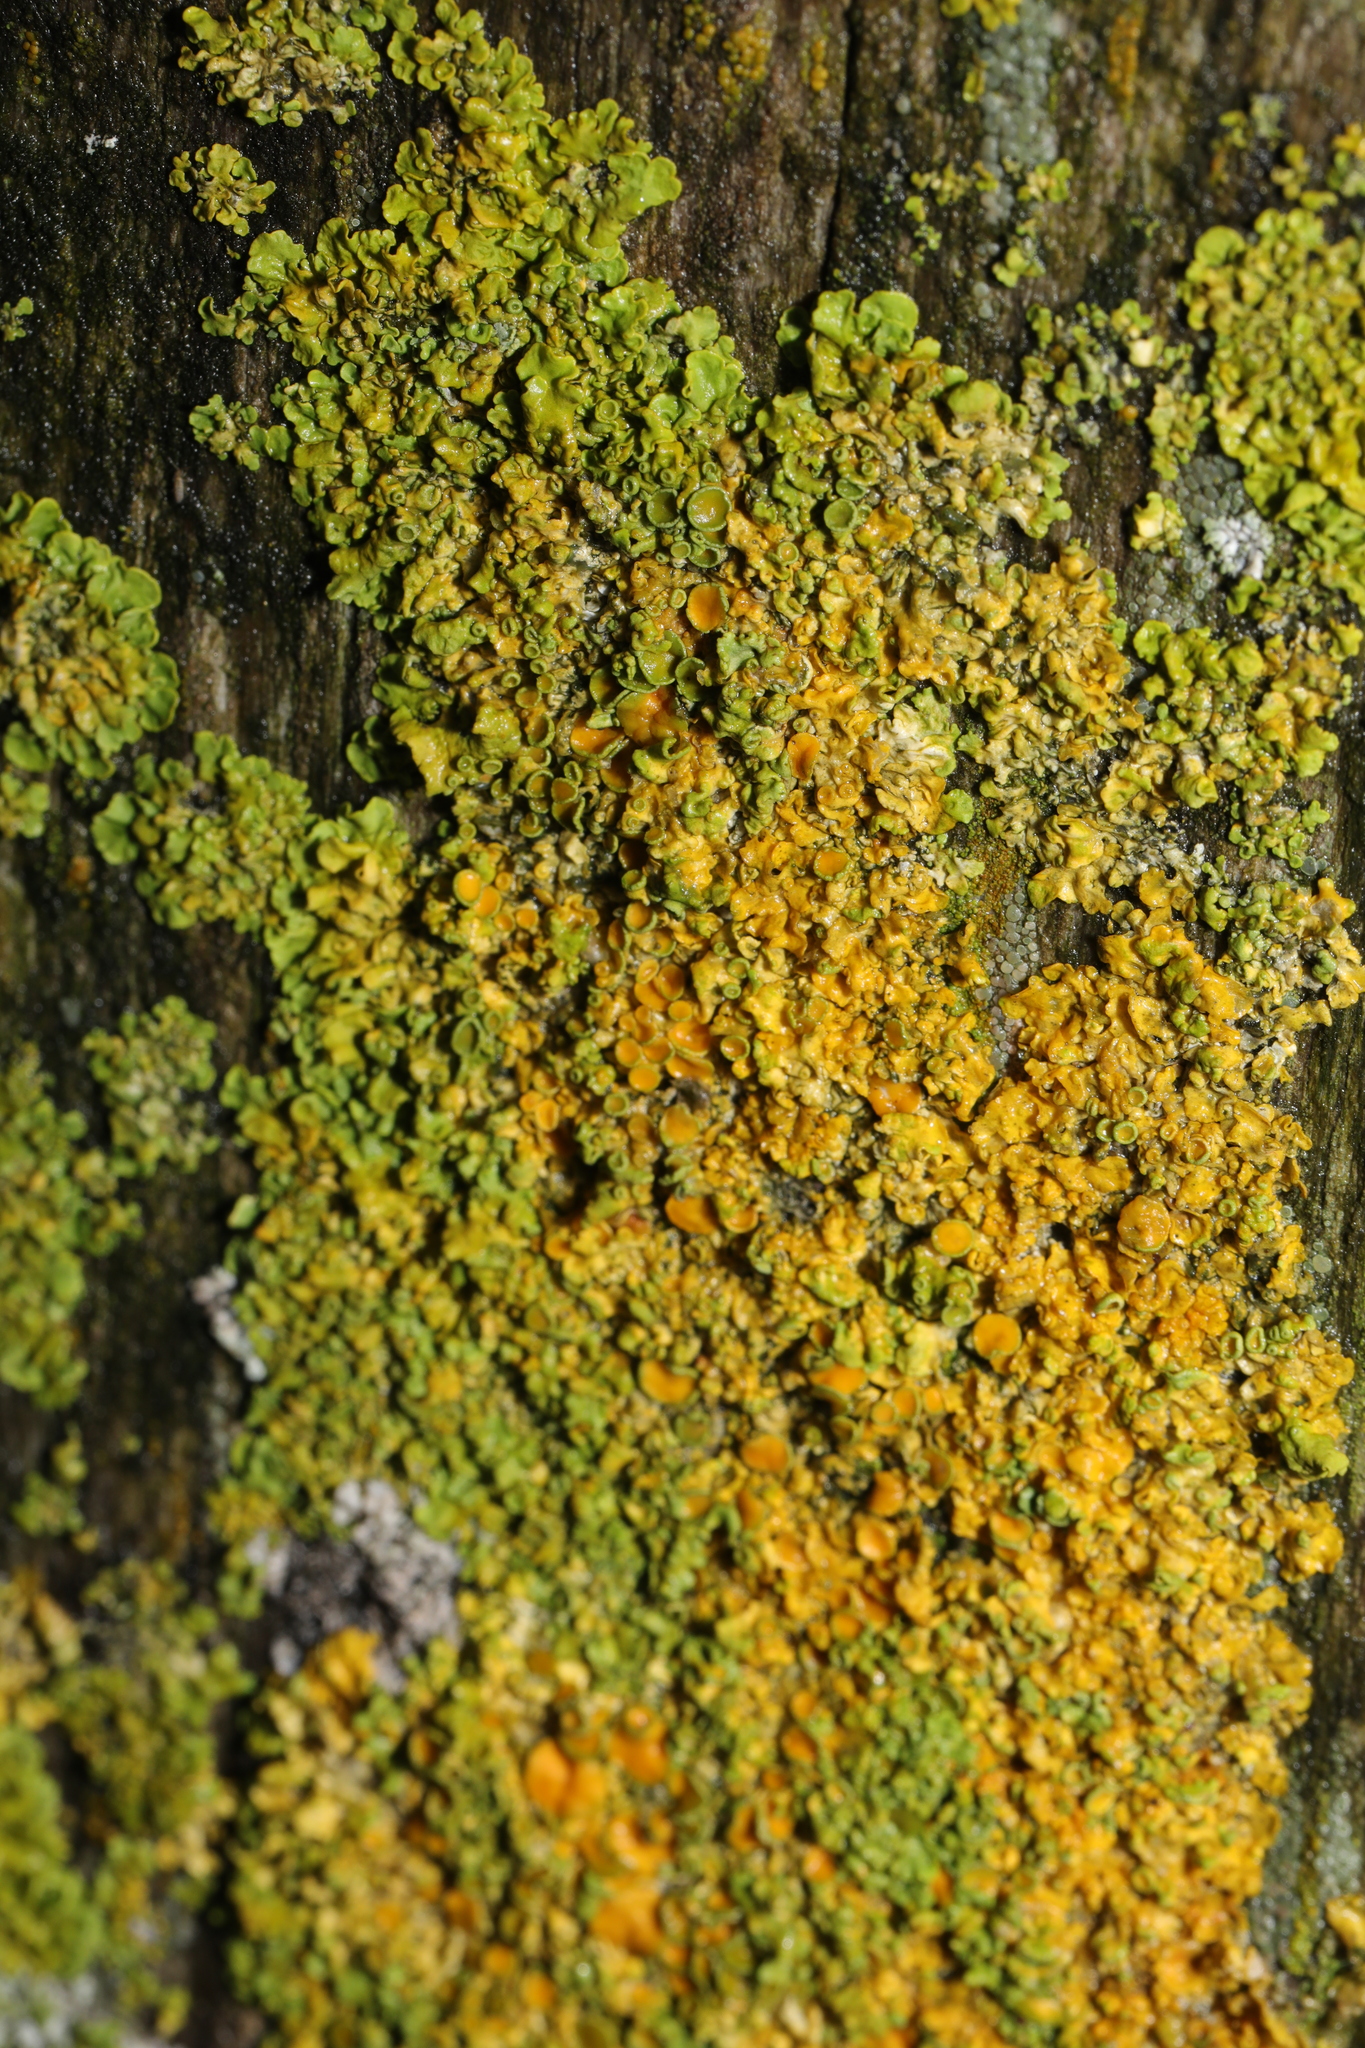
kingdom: Fungi
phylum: Ascomycota
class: Lecanoromycetes
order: Teloschistales
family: Teloschistaceae
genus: Xanthoria
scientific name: Xanthoria parietina
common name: Common orange lichen
